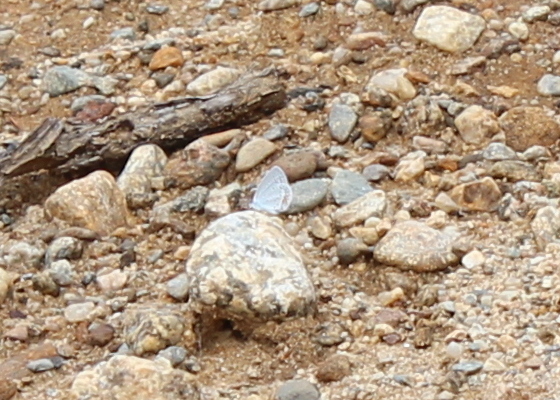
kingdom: Animalia
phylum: Arthropoda
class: Insecta
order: Lepidoptera
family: Lycaenidae
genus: Elkalyce
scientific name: Elkalyce comyntas
